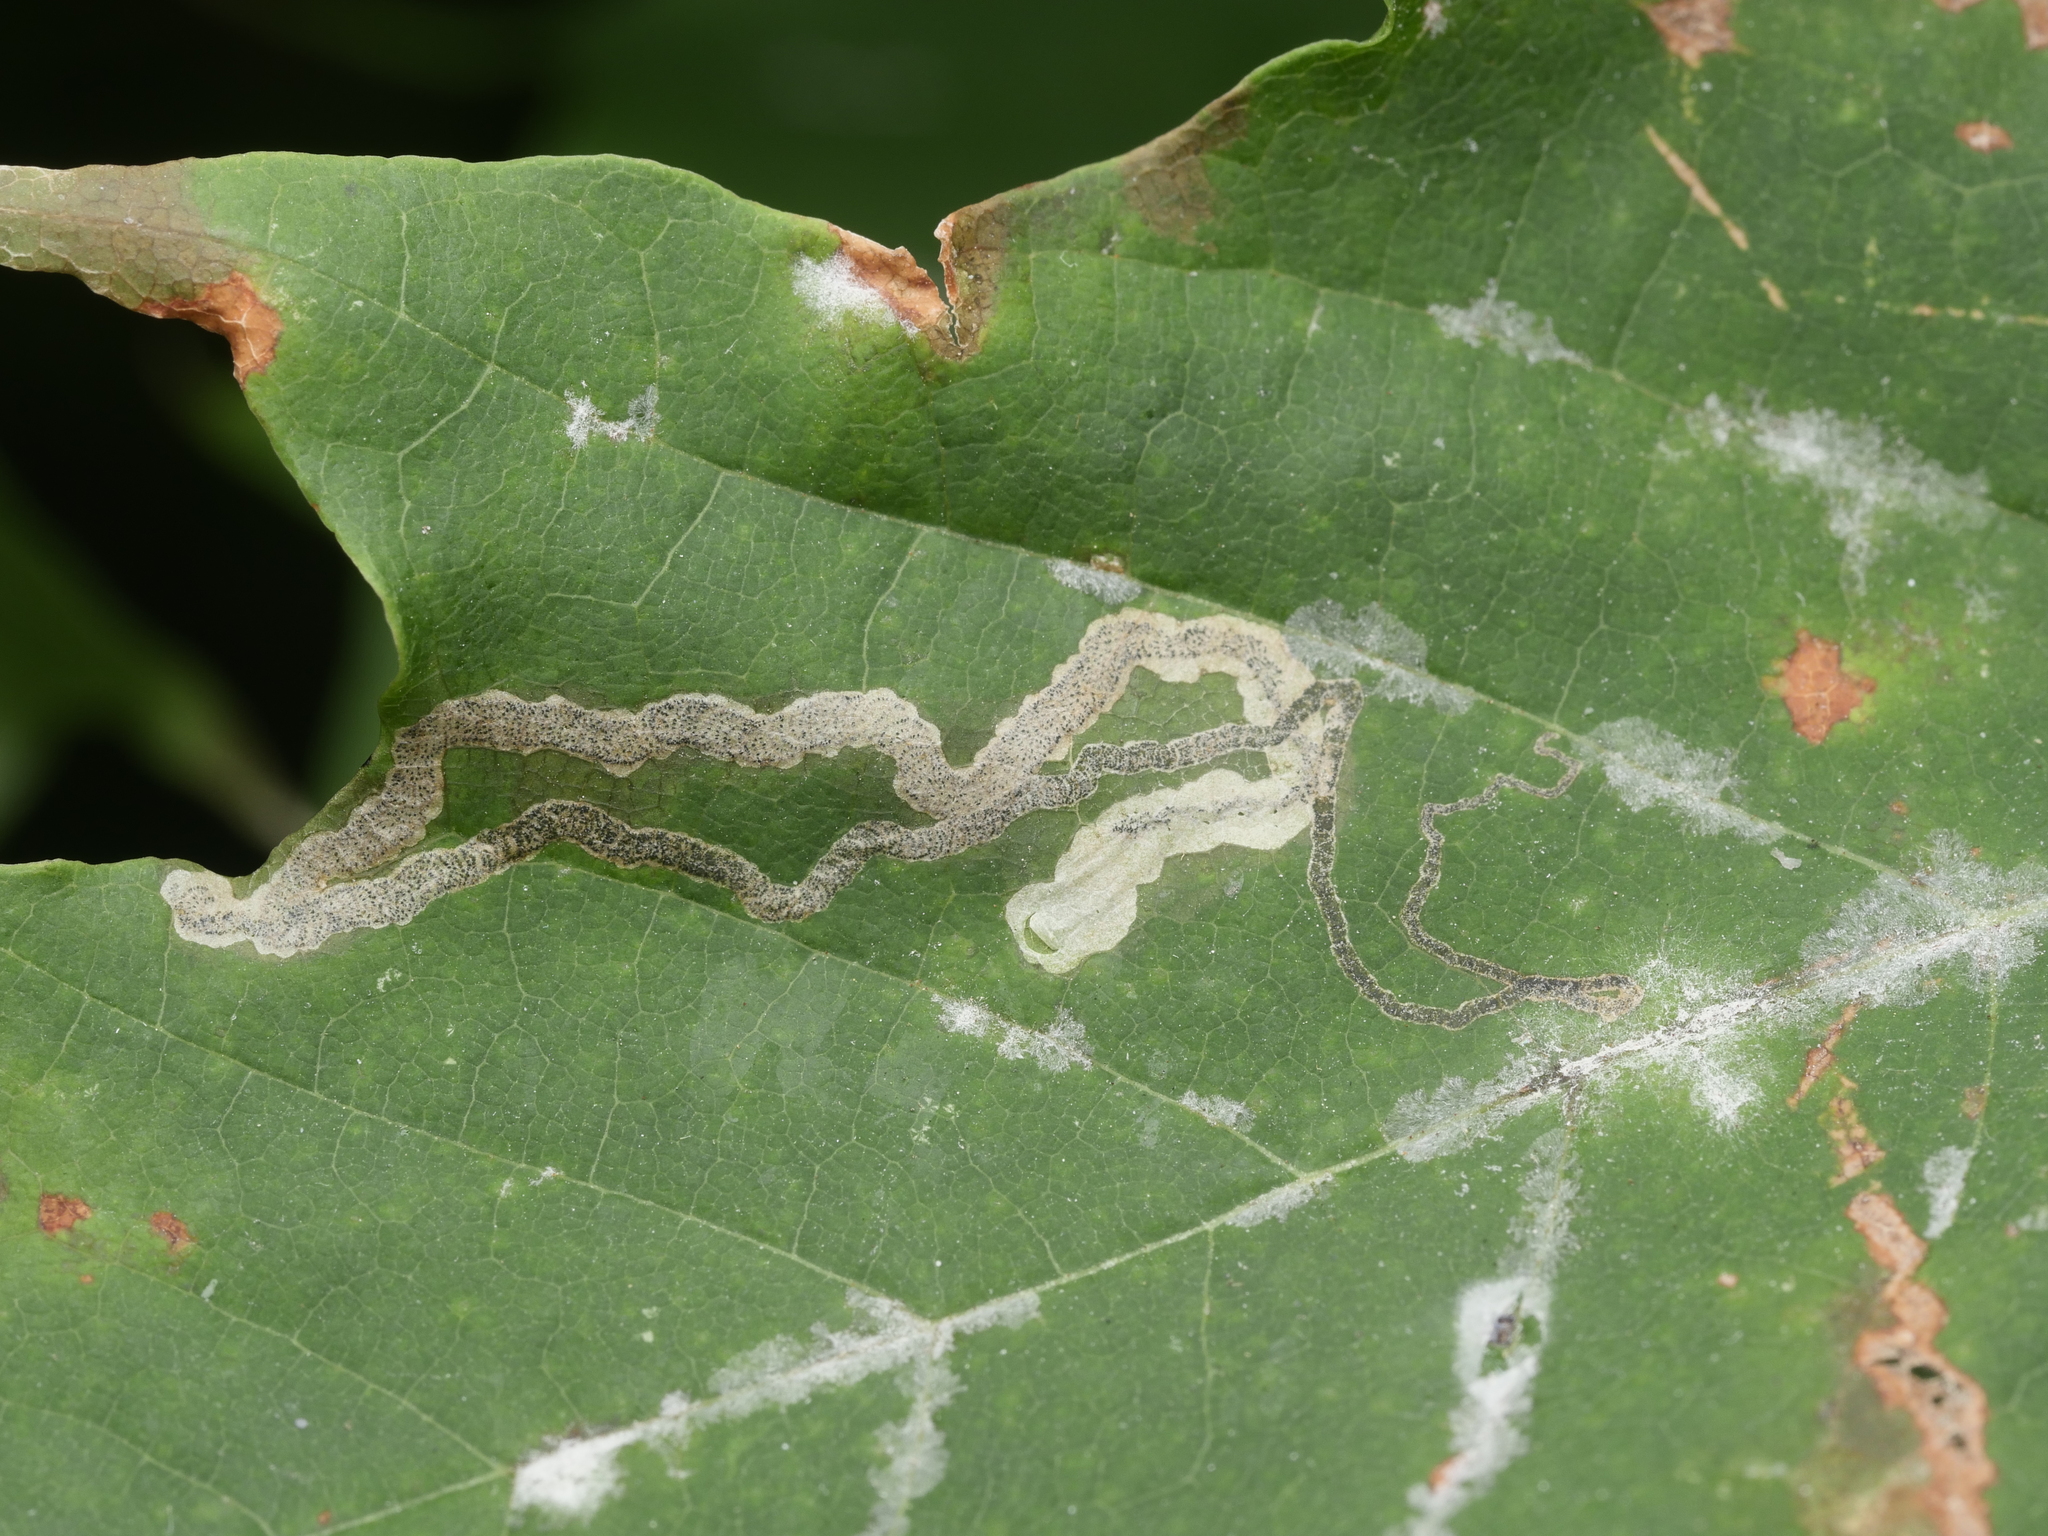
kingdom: Animalia
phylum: Arthropoda
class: Insecta
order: Lepidoptera
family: Nepticulidae
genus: Stigmella
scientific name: Stigmella aceris
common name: Scarce maple pigmy
